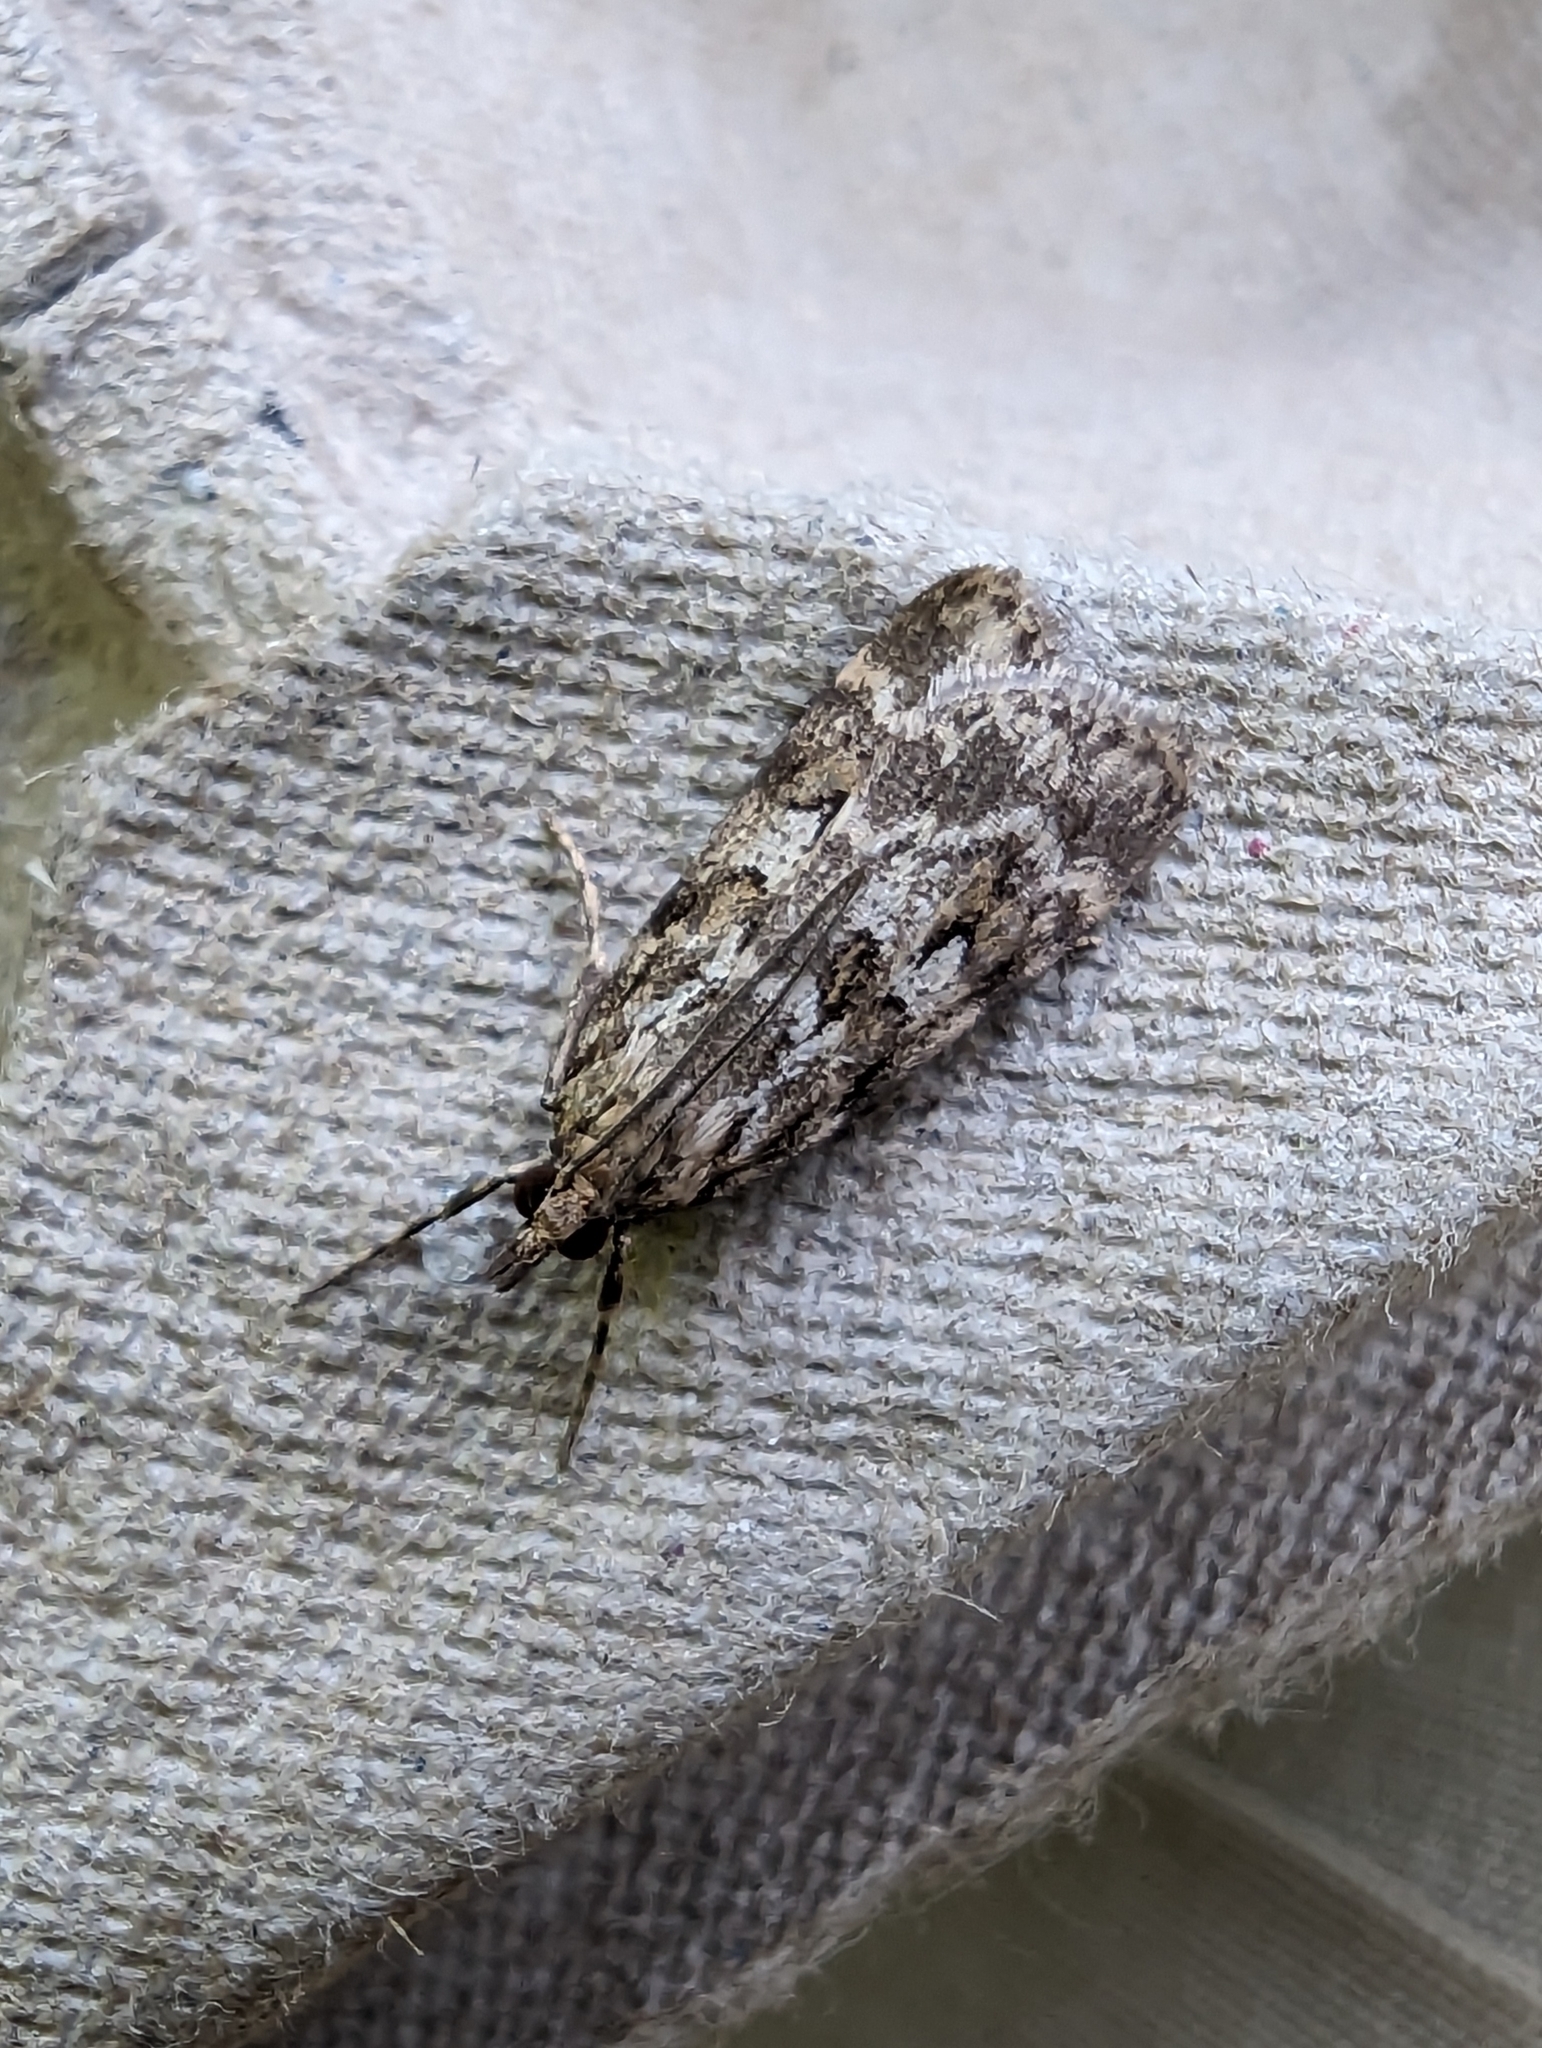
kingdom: Animalia
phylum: Arthropoda
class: Insecta
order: Lepidoptera
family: Crambidae
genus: Scoparia
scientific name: Scoparia pyralella
